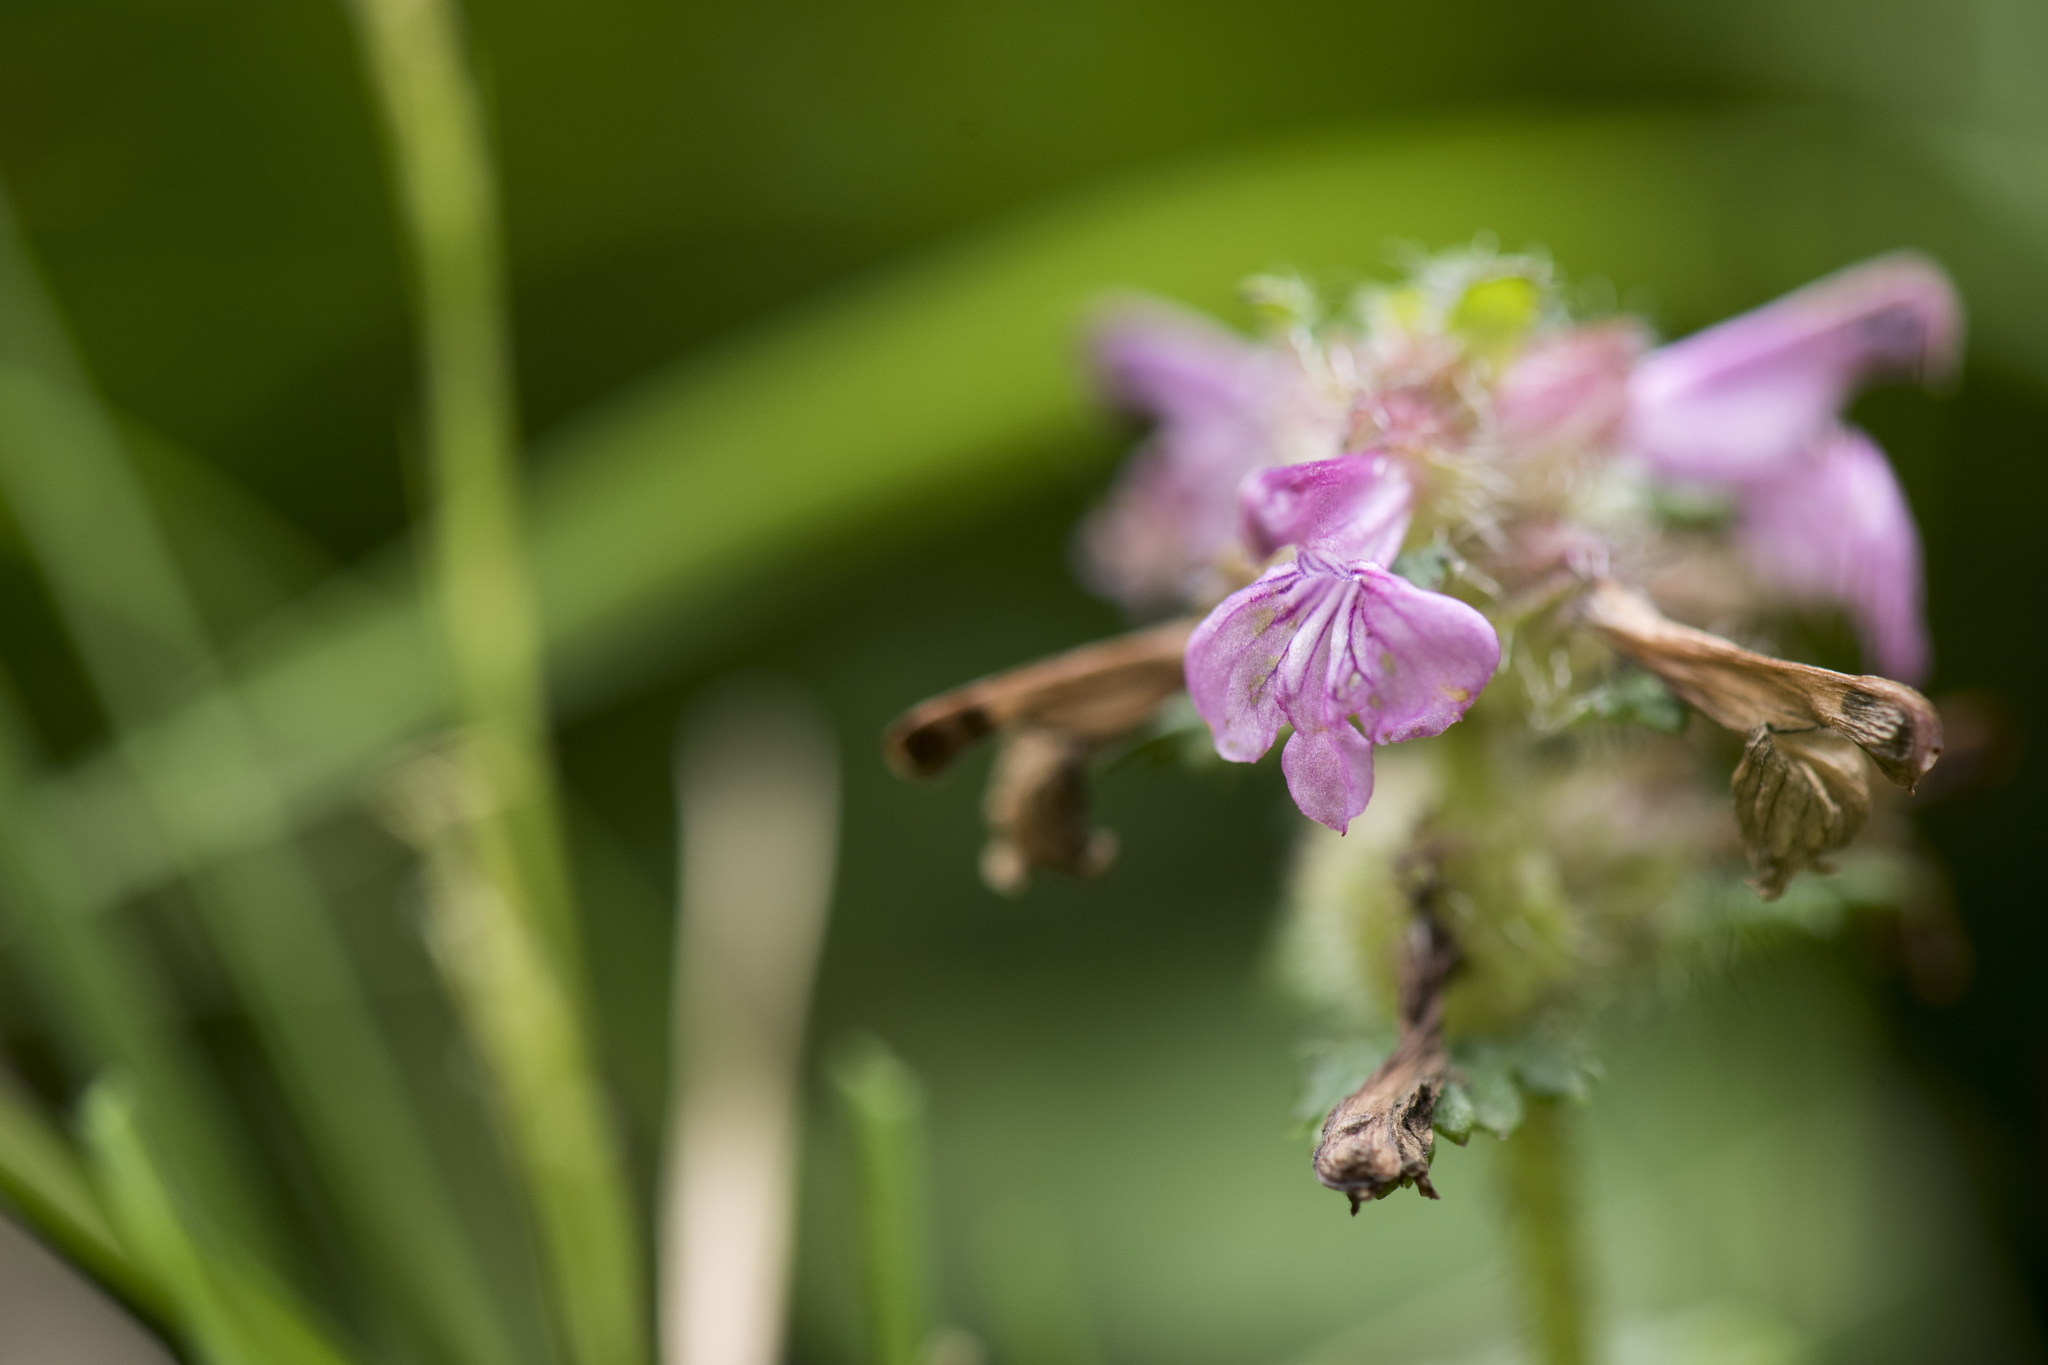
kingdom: Plantae
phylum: Tracheophyta
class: Magnoliopsida
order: Lamiales
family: Orobanchaceae
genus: Pedicularis
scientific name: Pedicularis refracta
